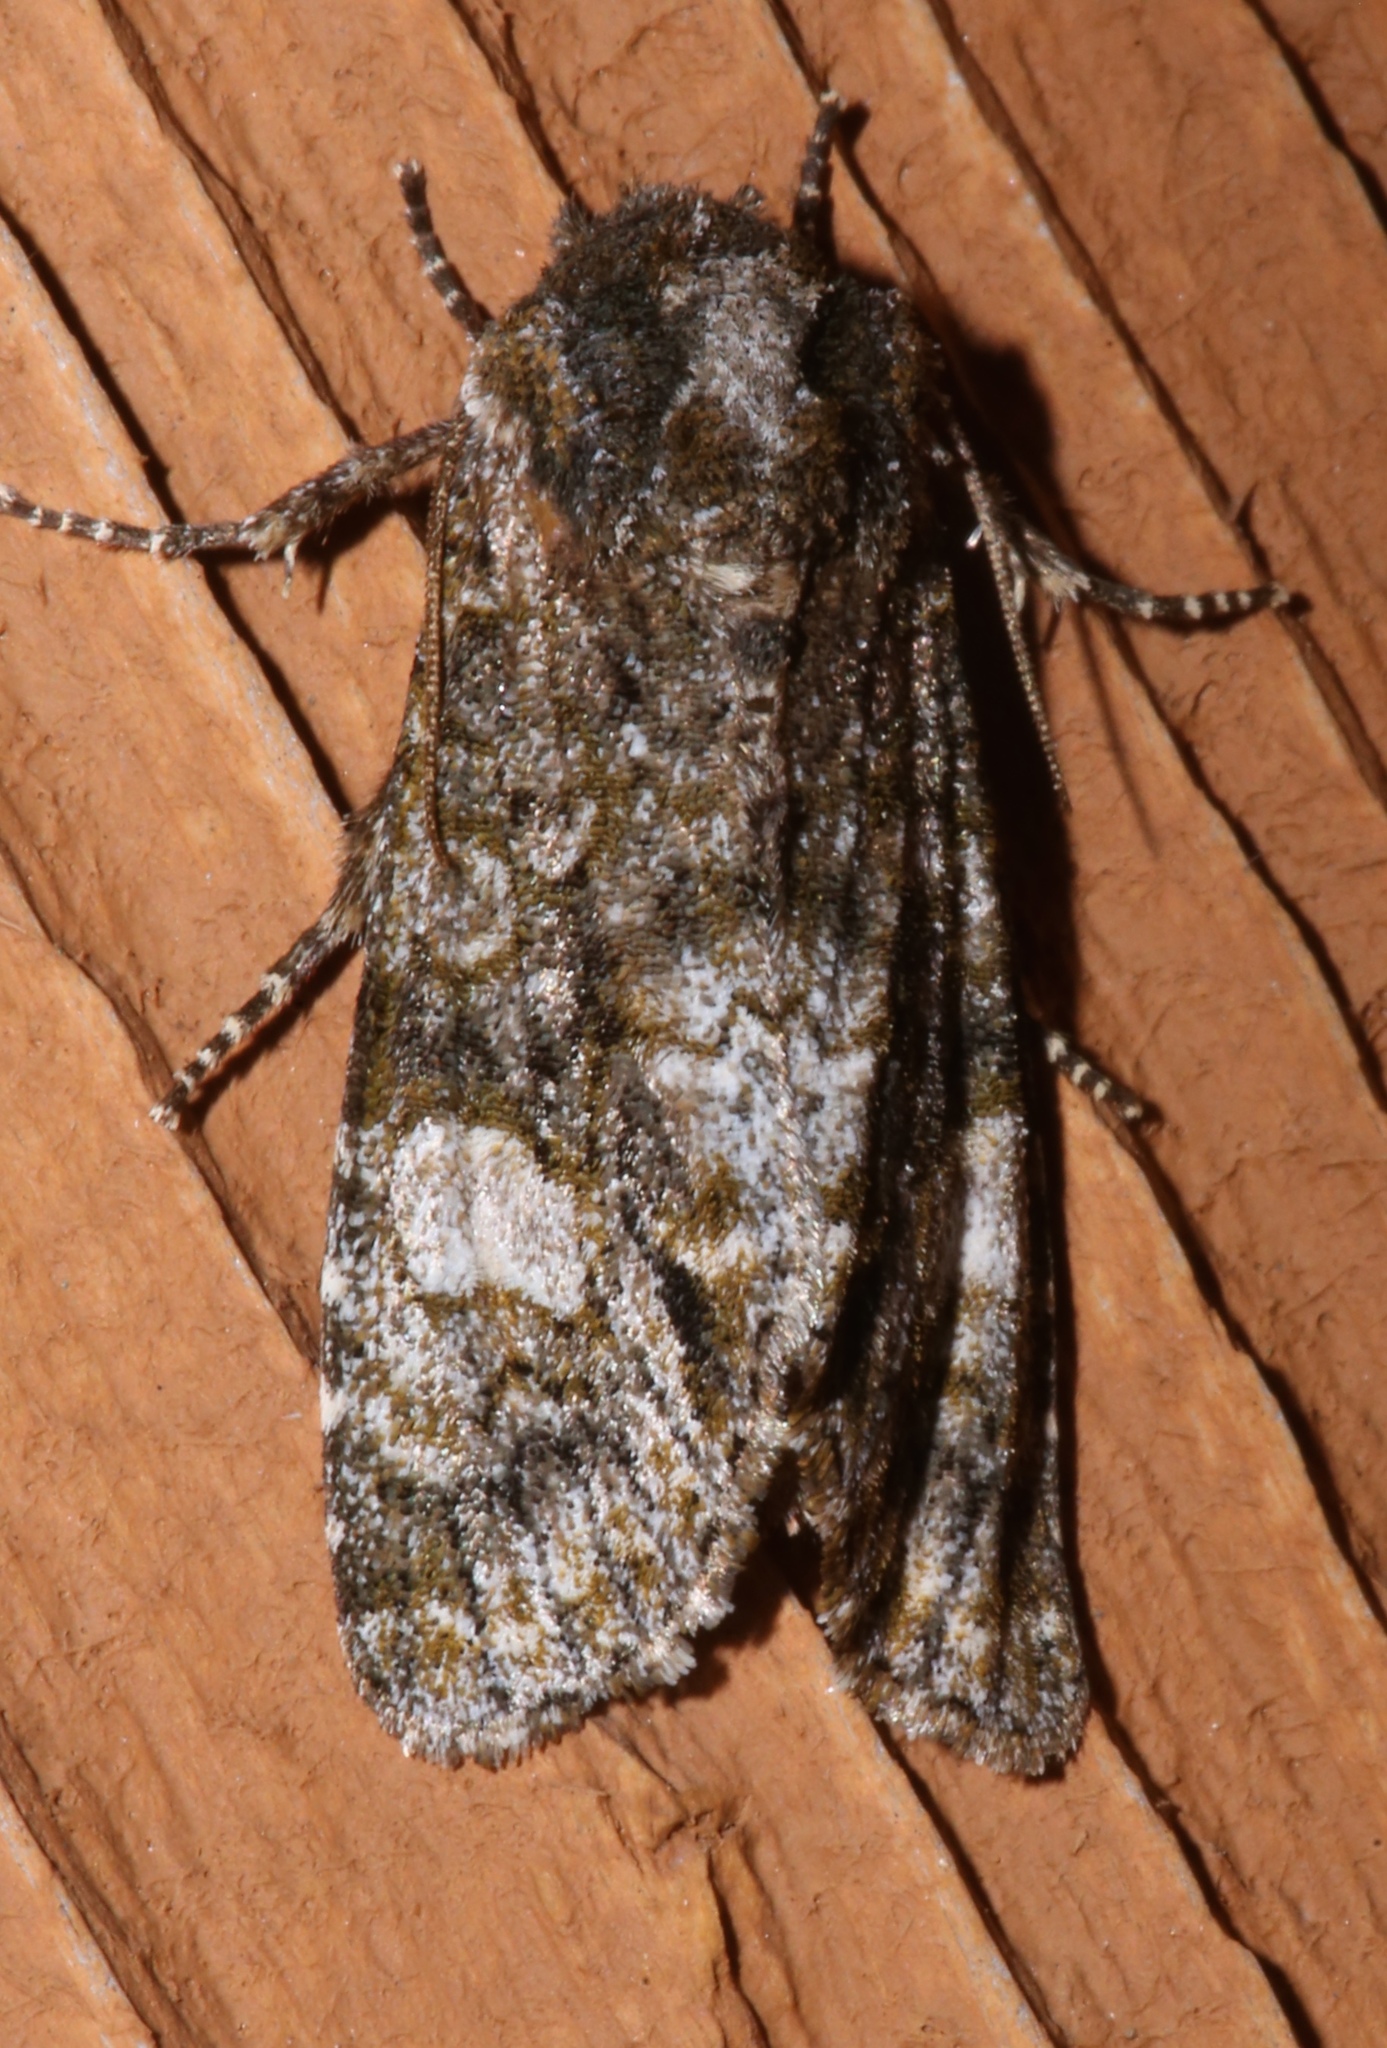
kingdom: Animalia
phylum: Arthropoda
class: Insecta
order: Lepidoptera
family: Noctuidae
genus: Psaphida
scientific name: Psaphida grotei
